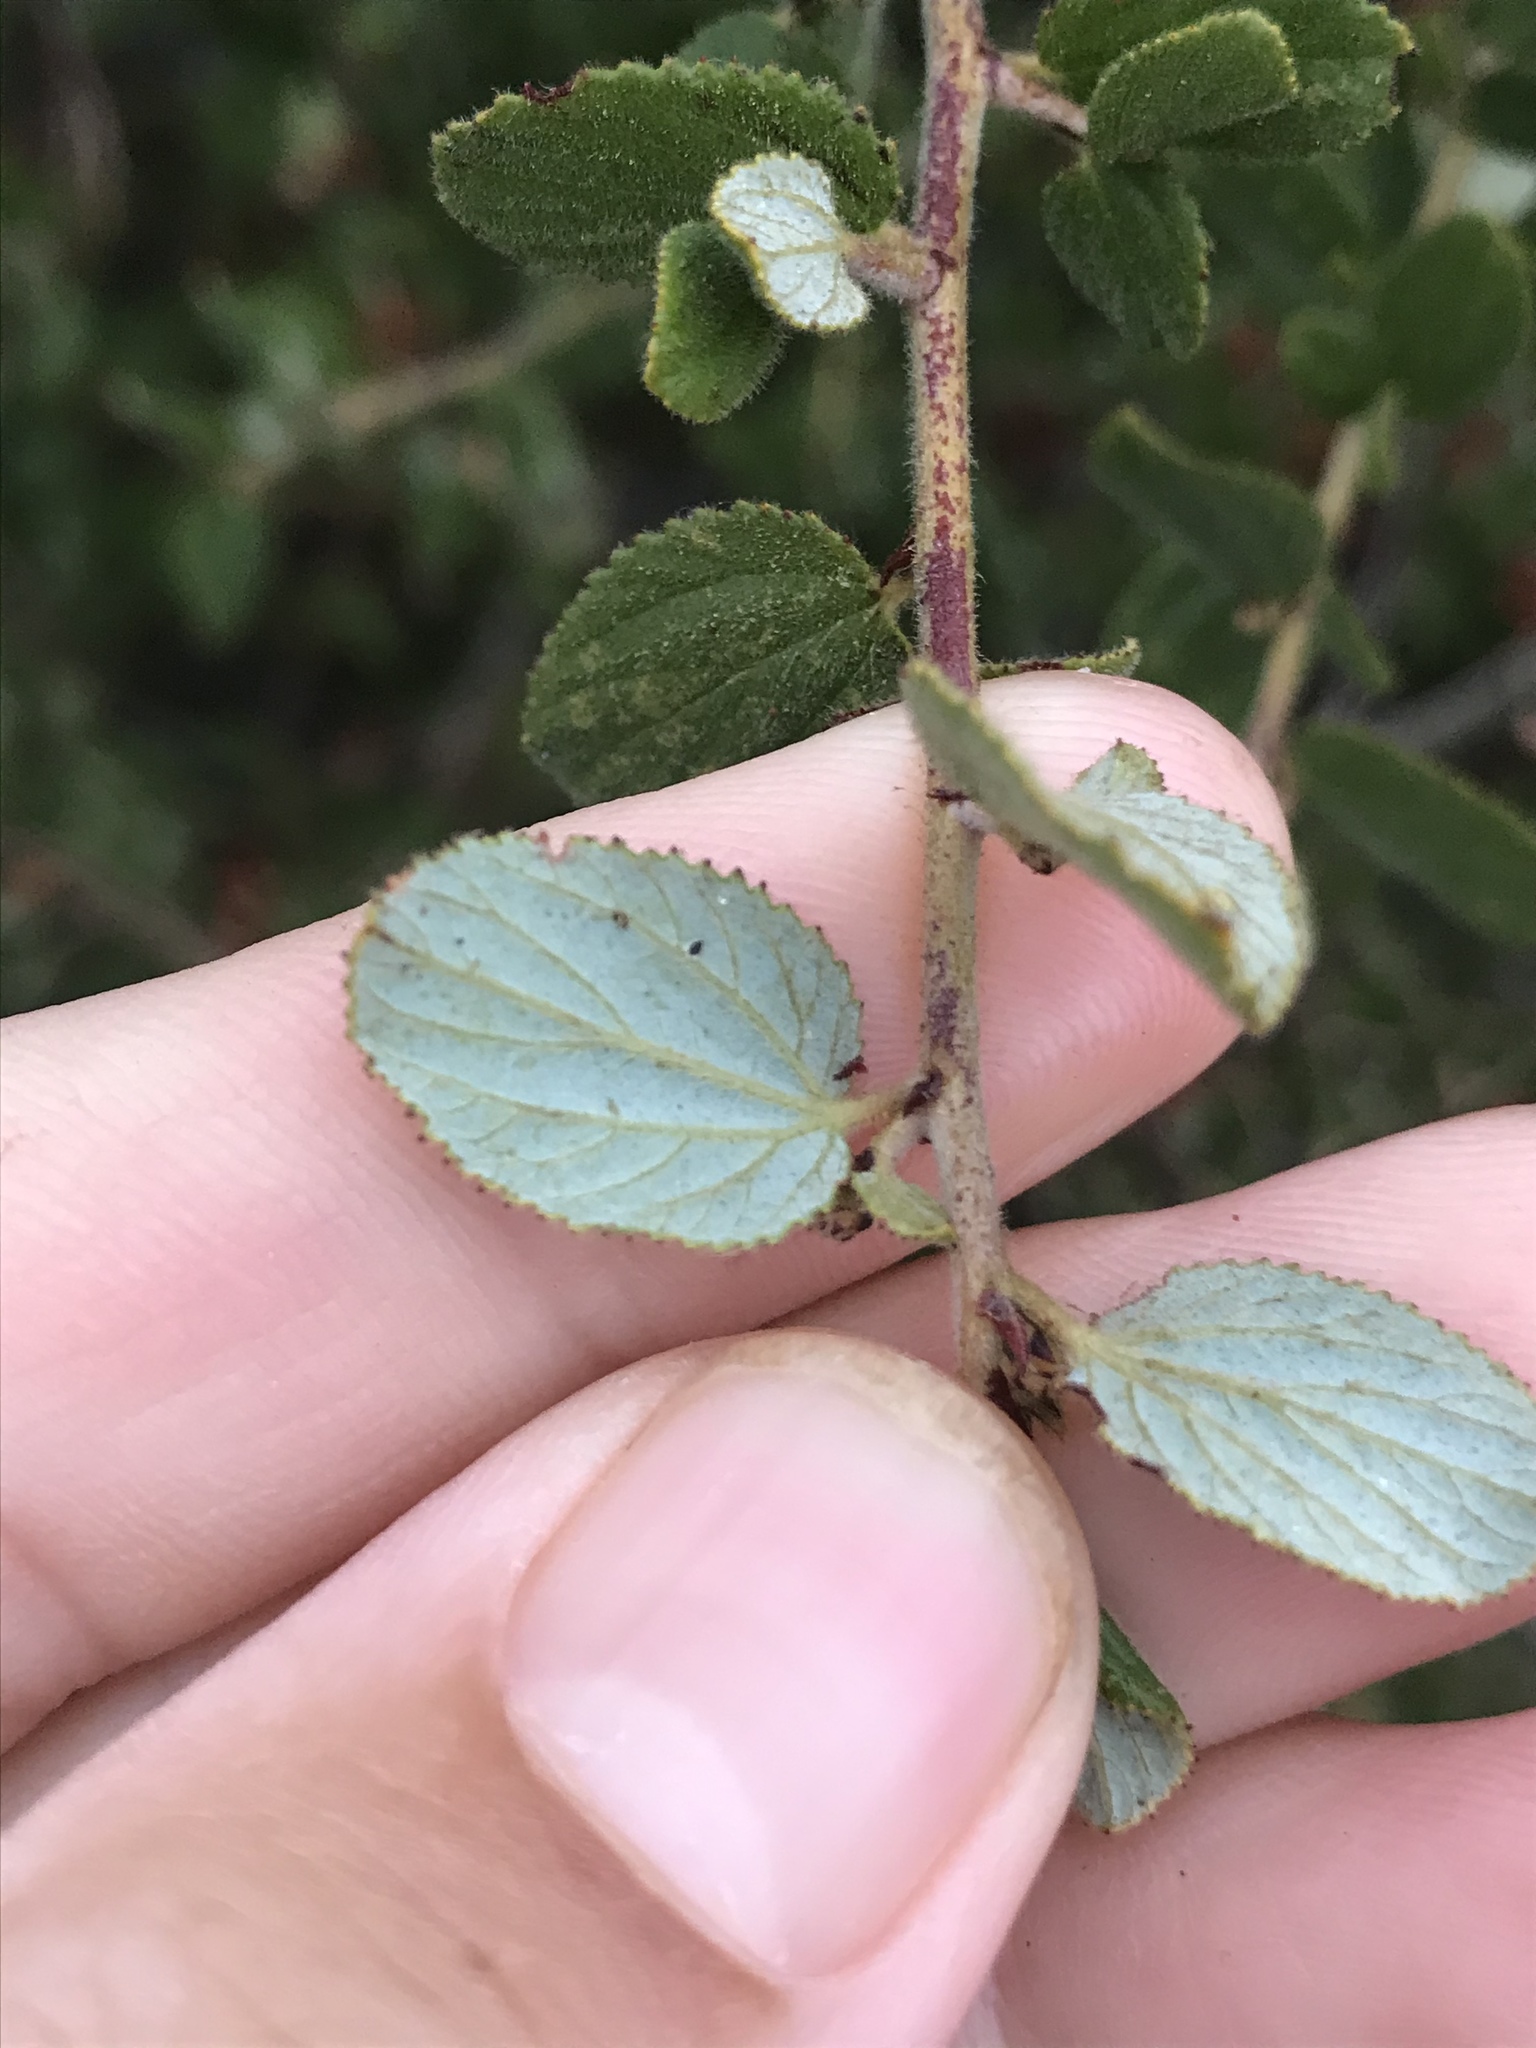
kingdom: Plantae
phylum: Tracheophyta
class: Magnoliopsida
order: Rosales
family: Rhamnaceae
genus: Ceanothus
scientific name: Ceanothus oliganthus
